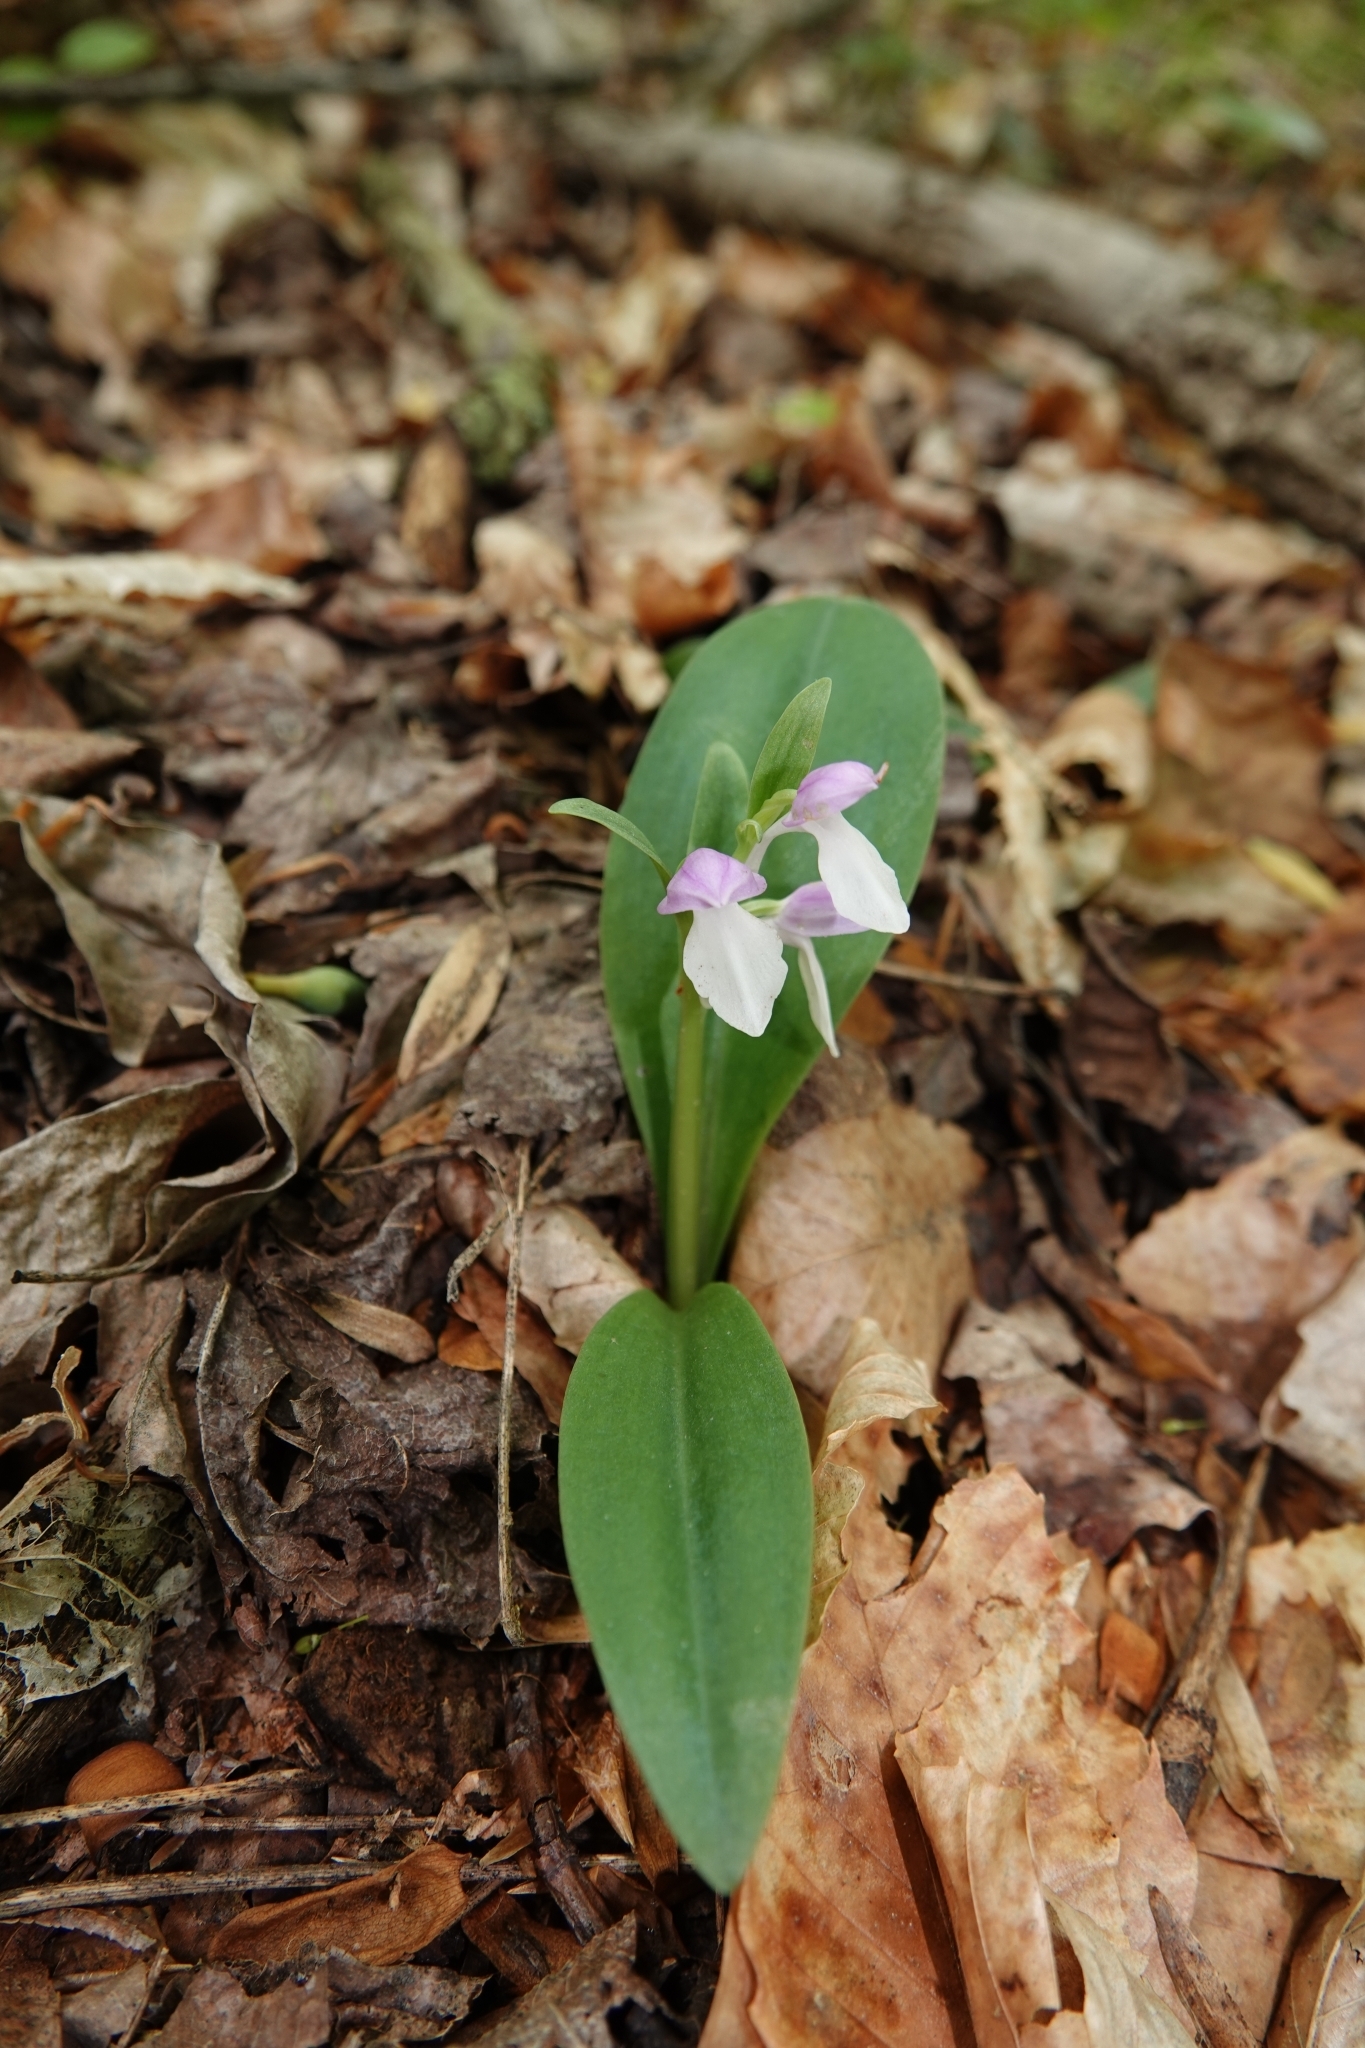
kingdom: Plantae
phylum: Tracheophyta
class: Liliopsida
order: Asparagales
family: Orchidaceae
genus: Galearis
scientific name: Galearis spectabilis
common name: Purple-hooded orchis
